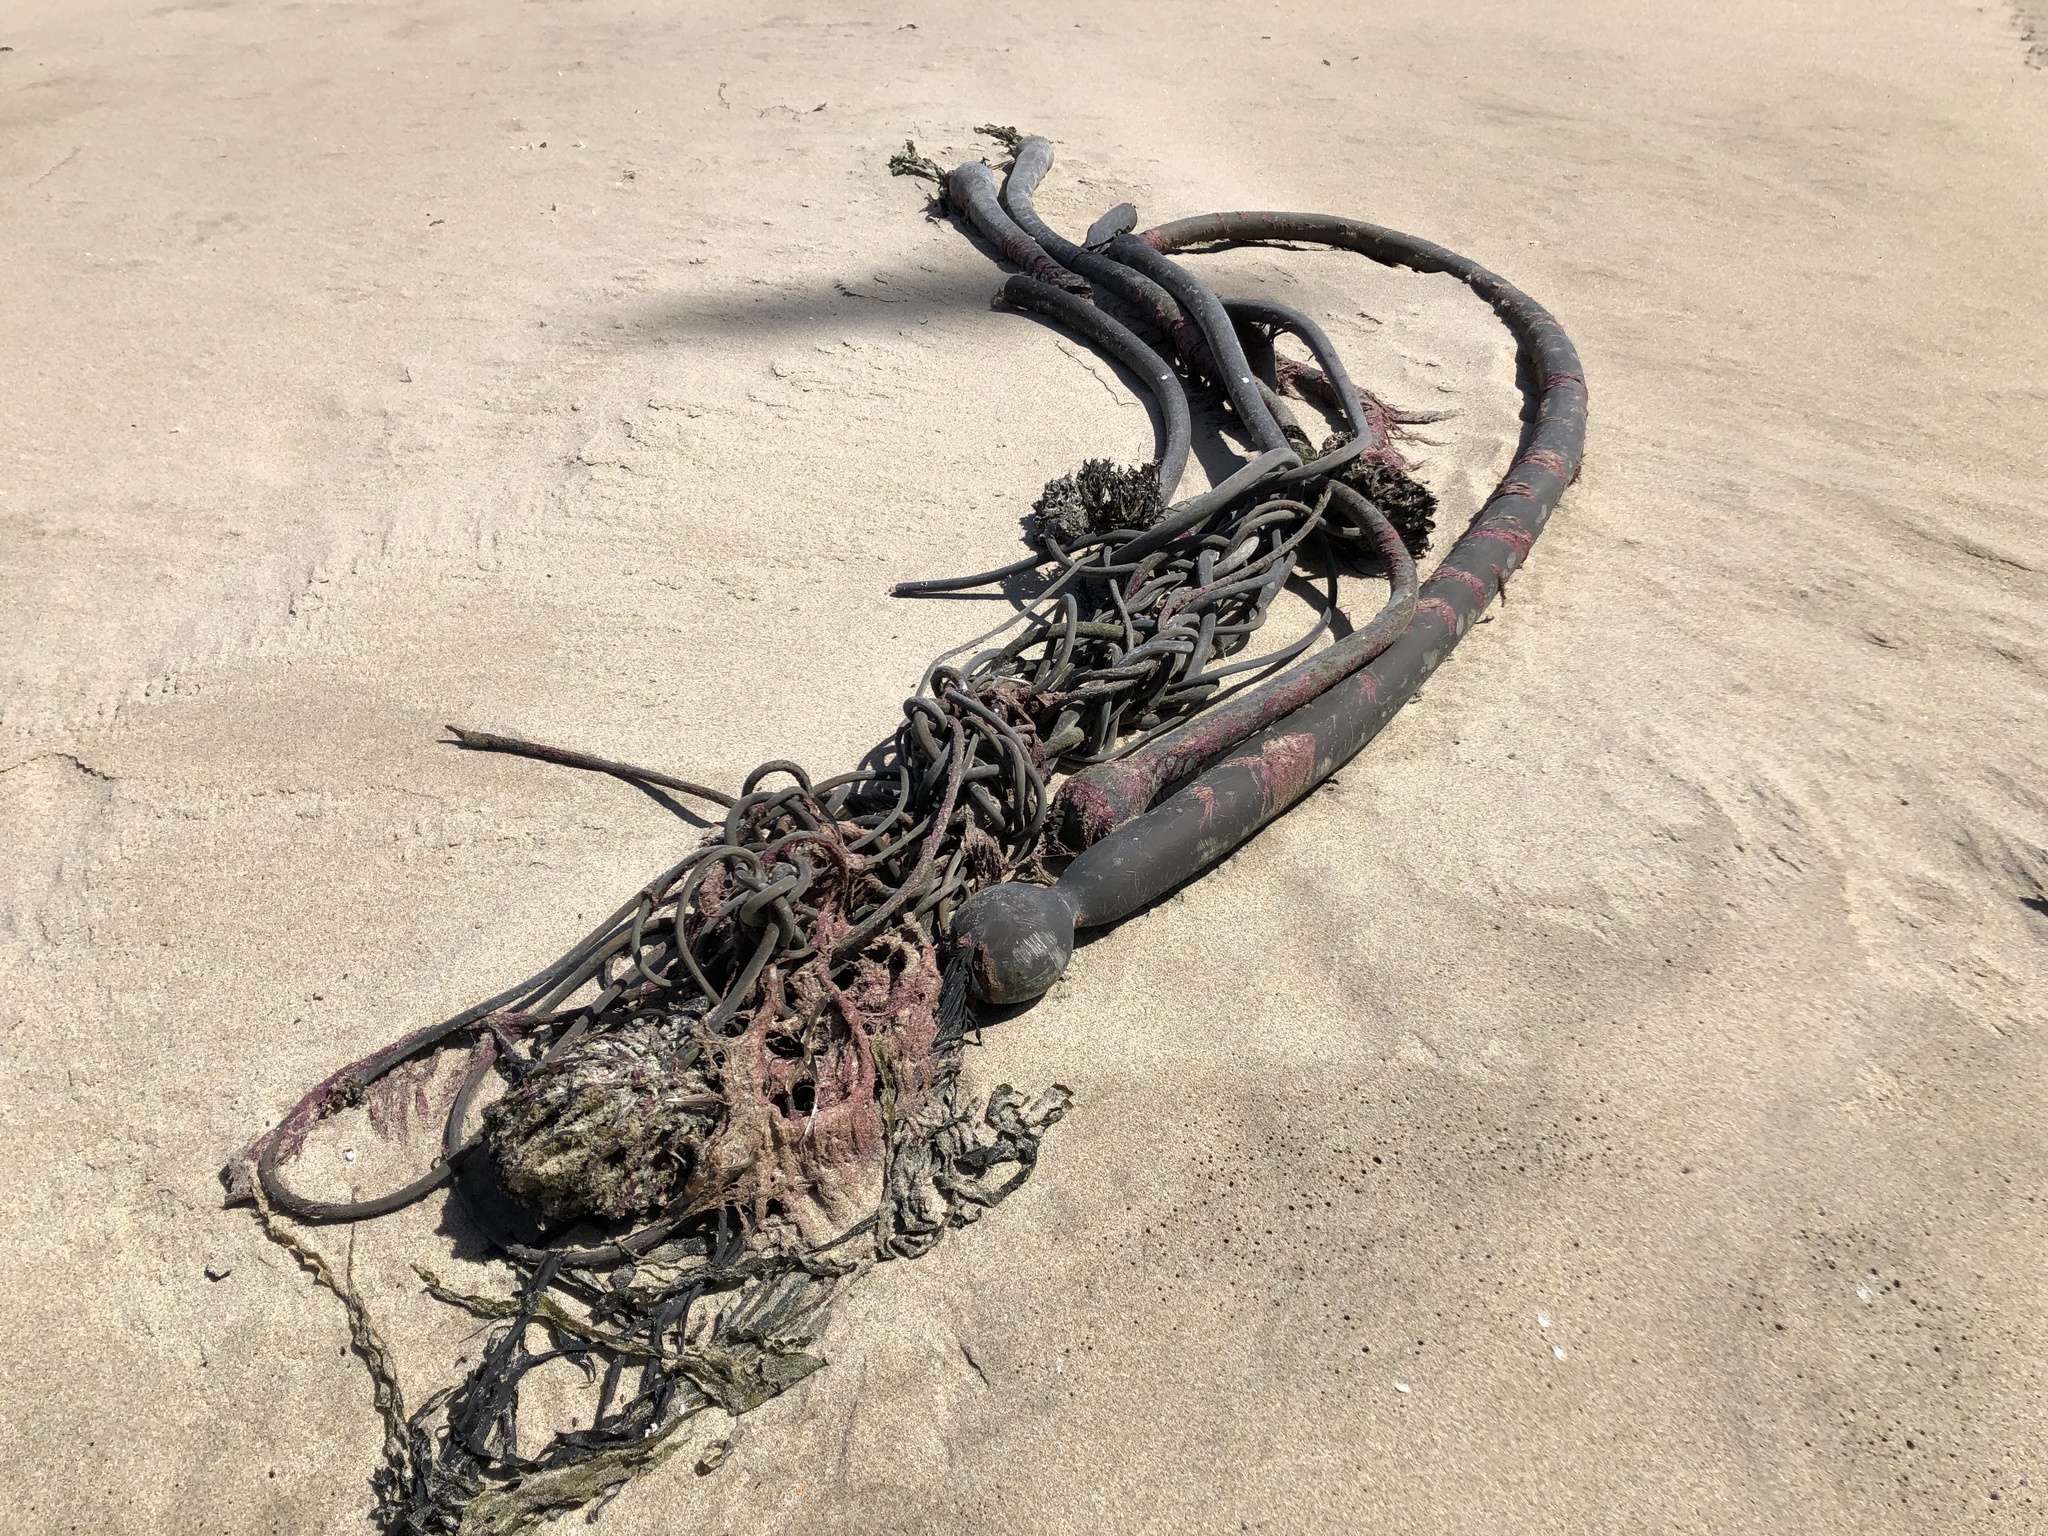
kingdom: Chromista
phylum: Ochrophyta
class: Phaeophyceae
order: Laminariales
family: Laminariaceae
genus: Nereocystis
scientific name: Nereocystis luetkeana
